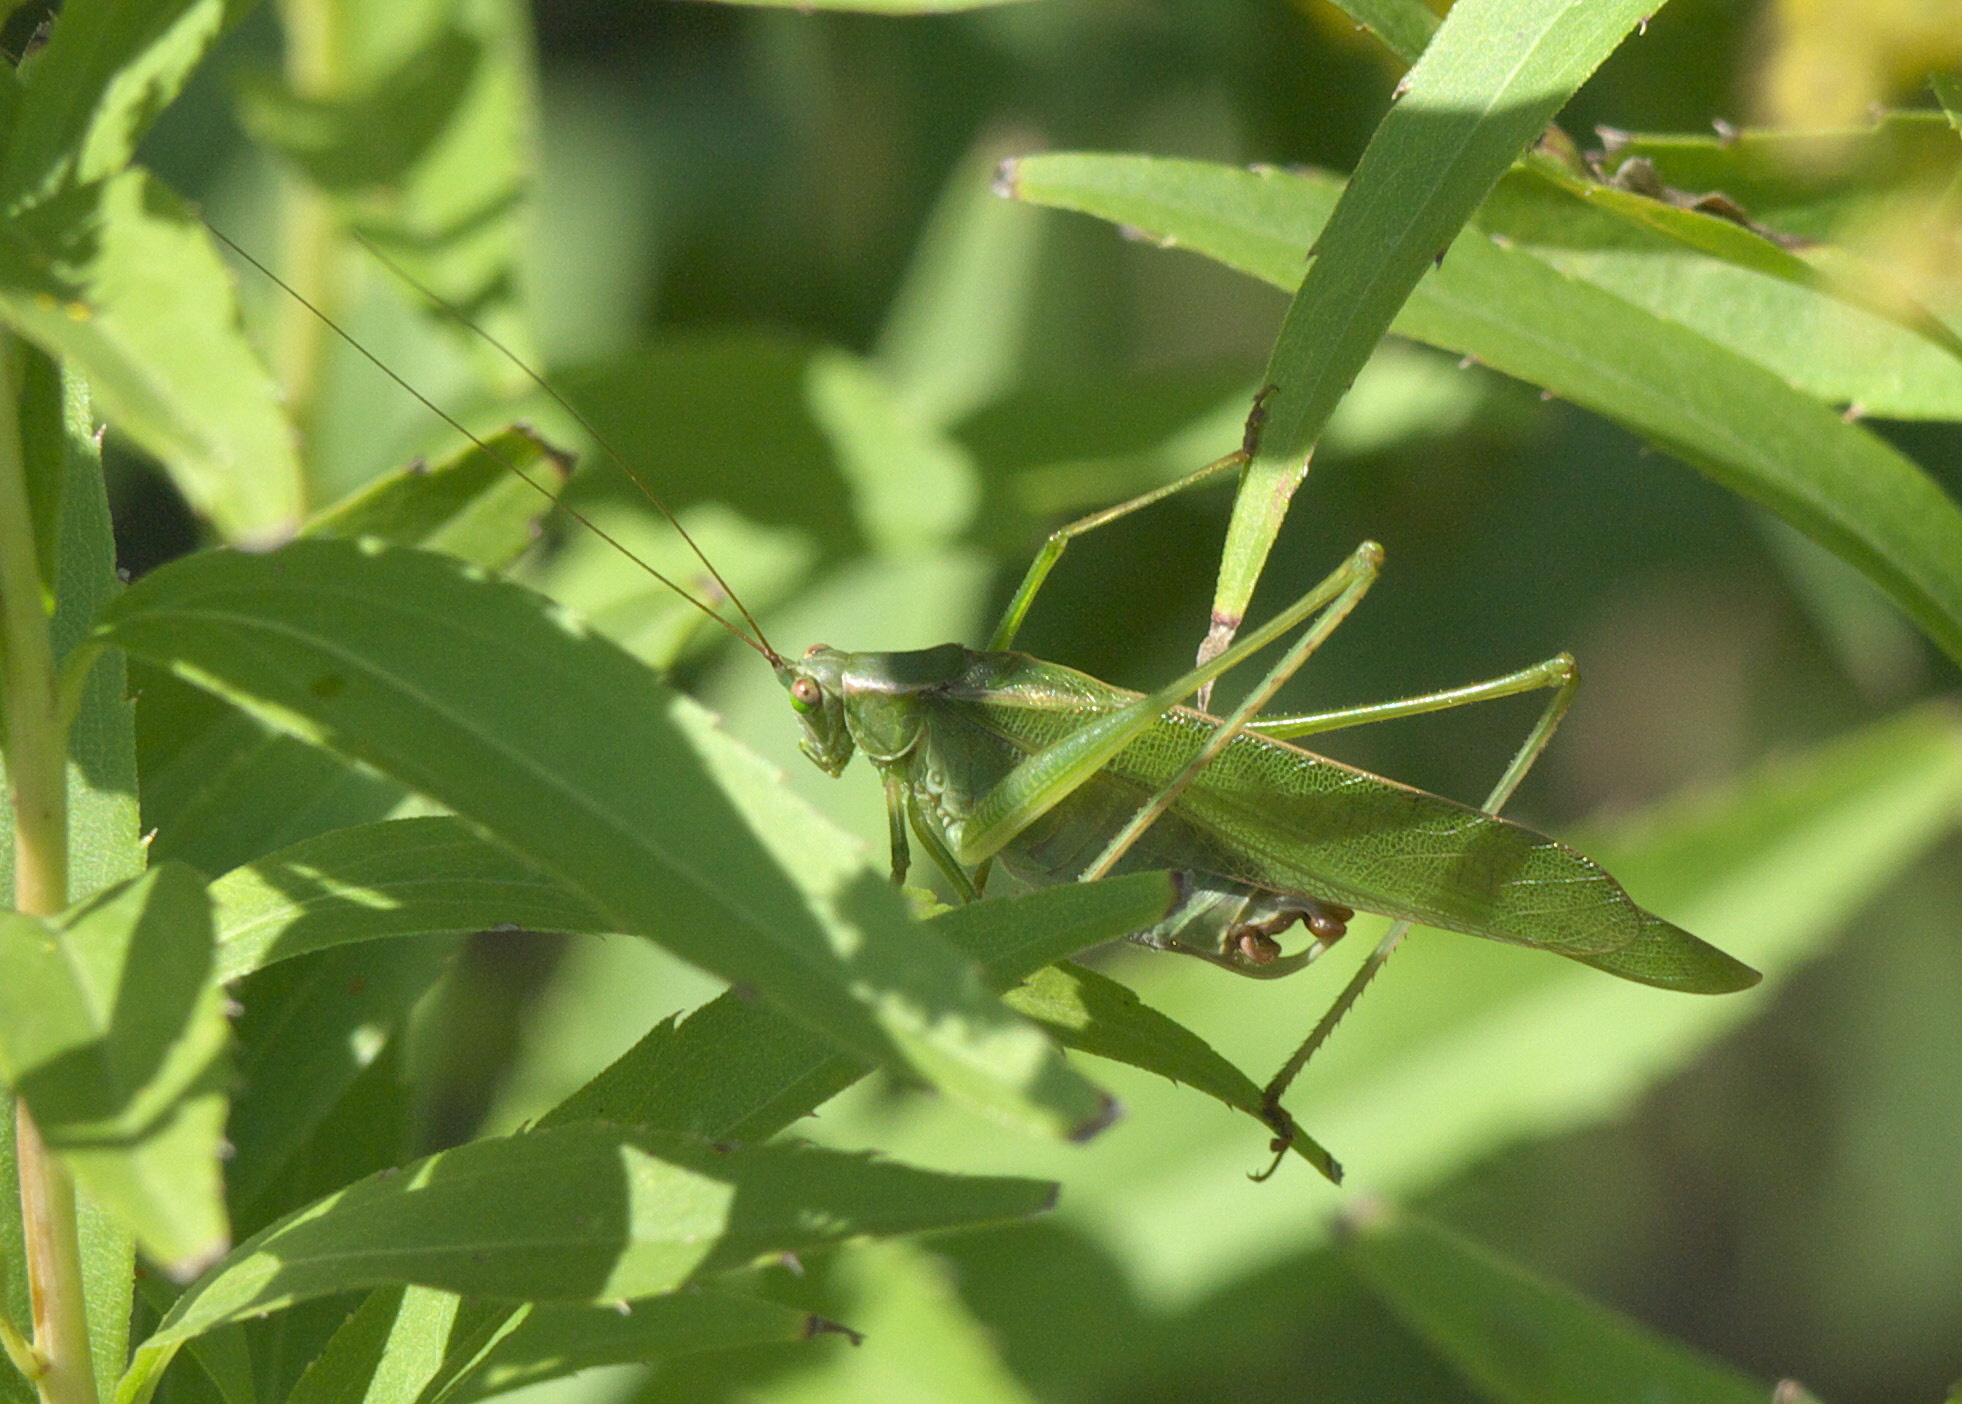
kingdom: Animalia
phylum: Arthropoda
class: Insecta
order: Orthoptera
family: Tettigoniidae
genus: Scudderia
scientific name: Scudderia furcata
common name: Fork-tailed bush katydid
